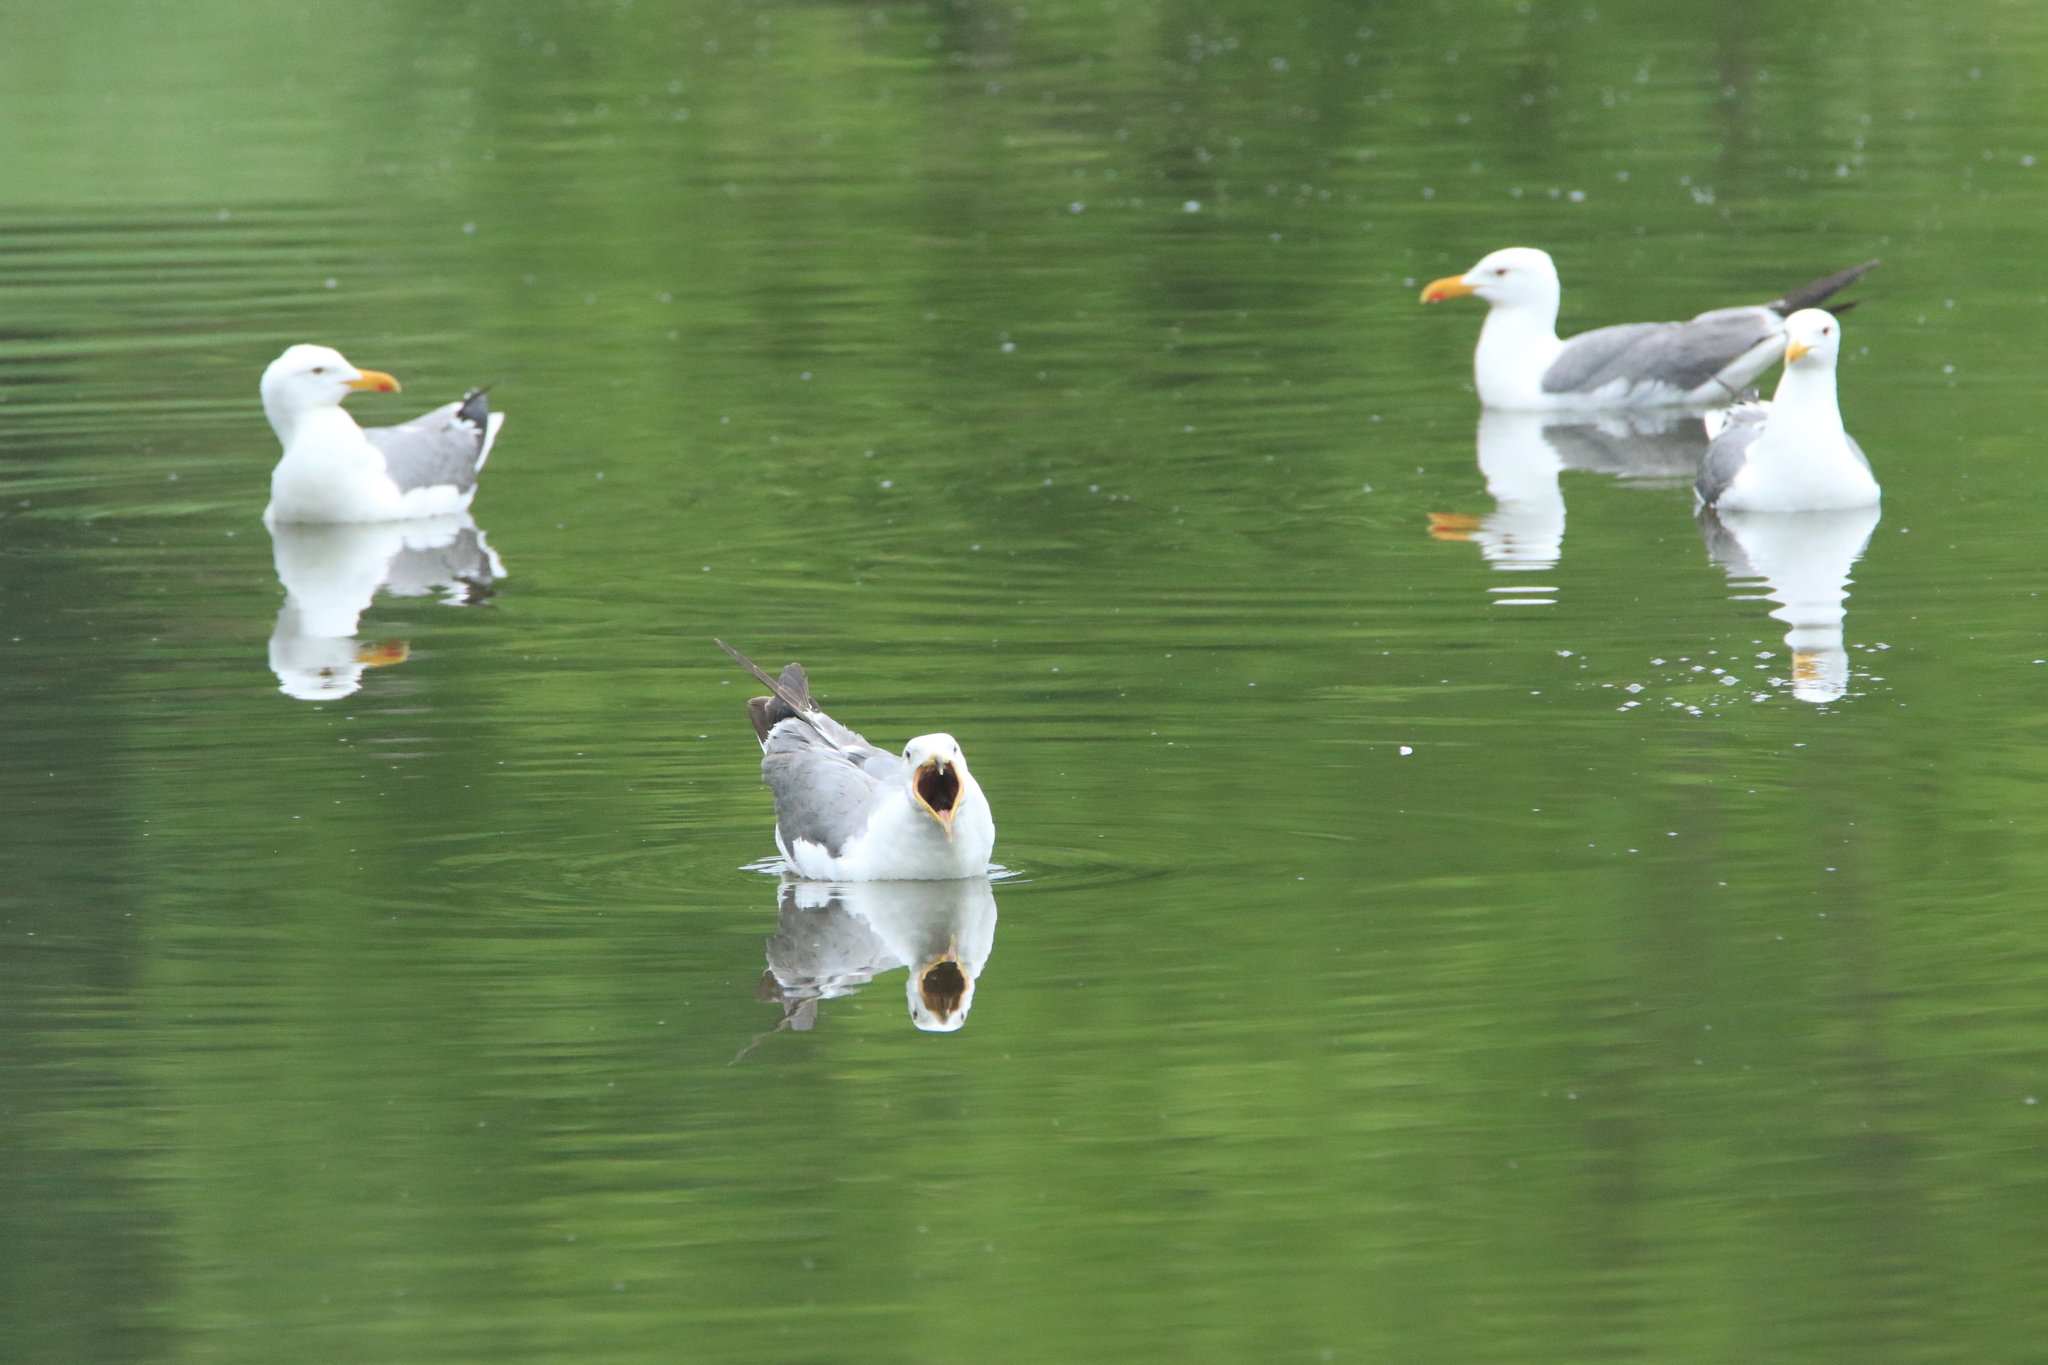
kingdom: Animalia
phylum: Chordata
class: Aves
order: Charadriiformes
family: Laridae
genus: Larus
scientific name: Larus fuscus
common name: Lesser black-backed gull
